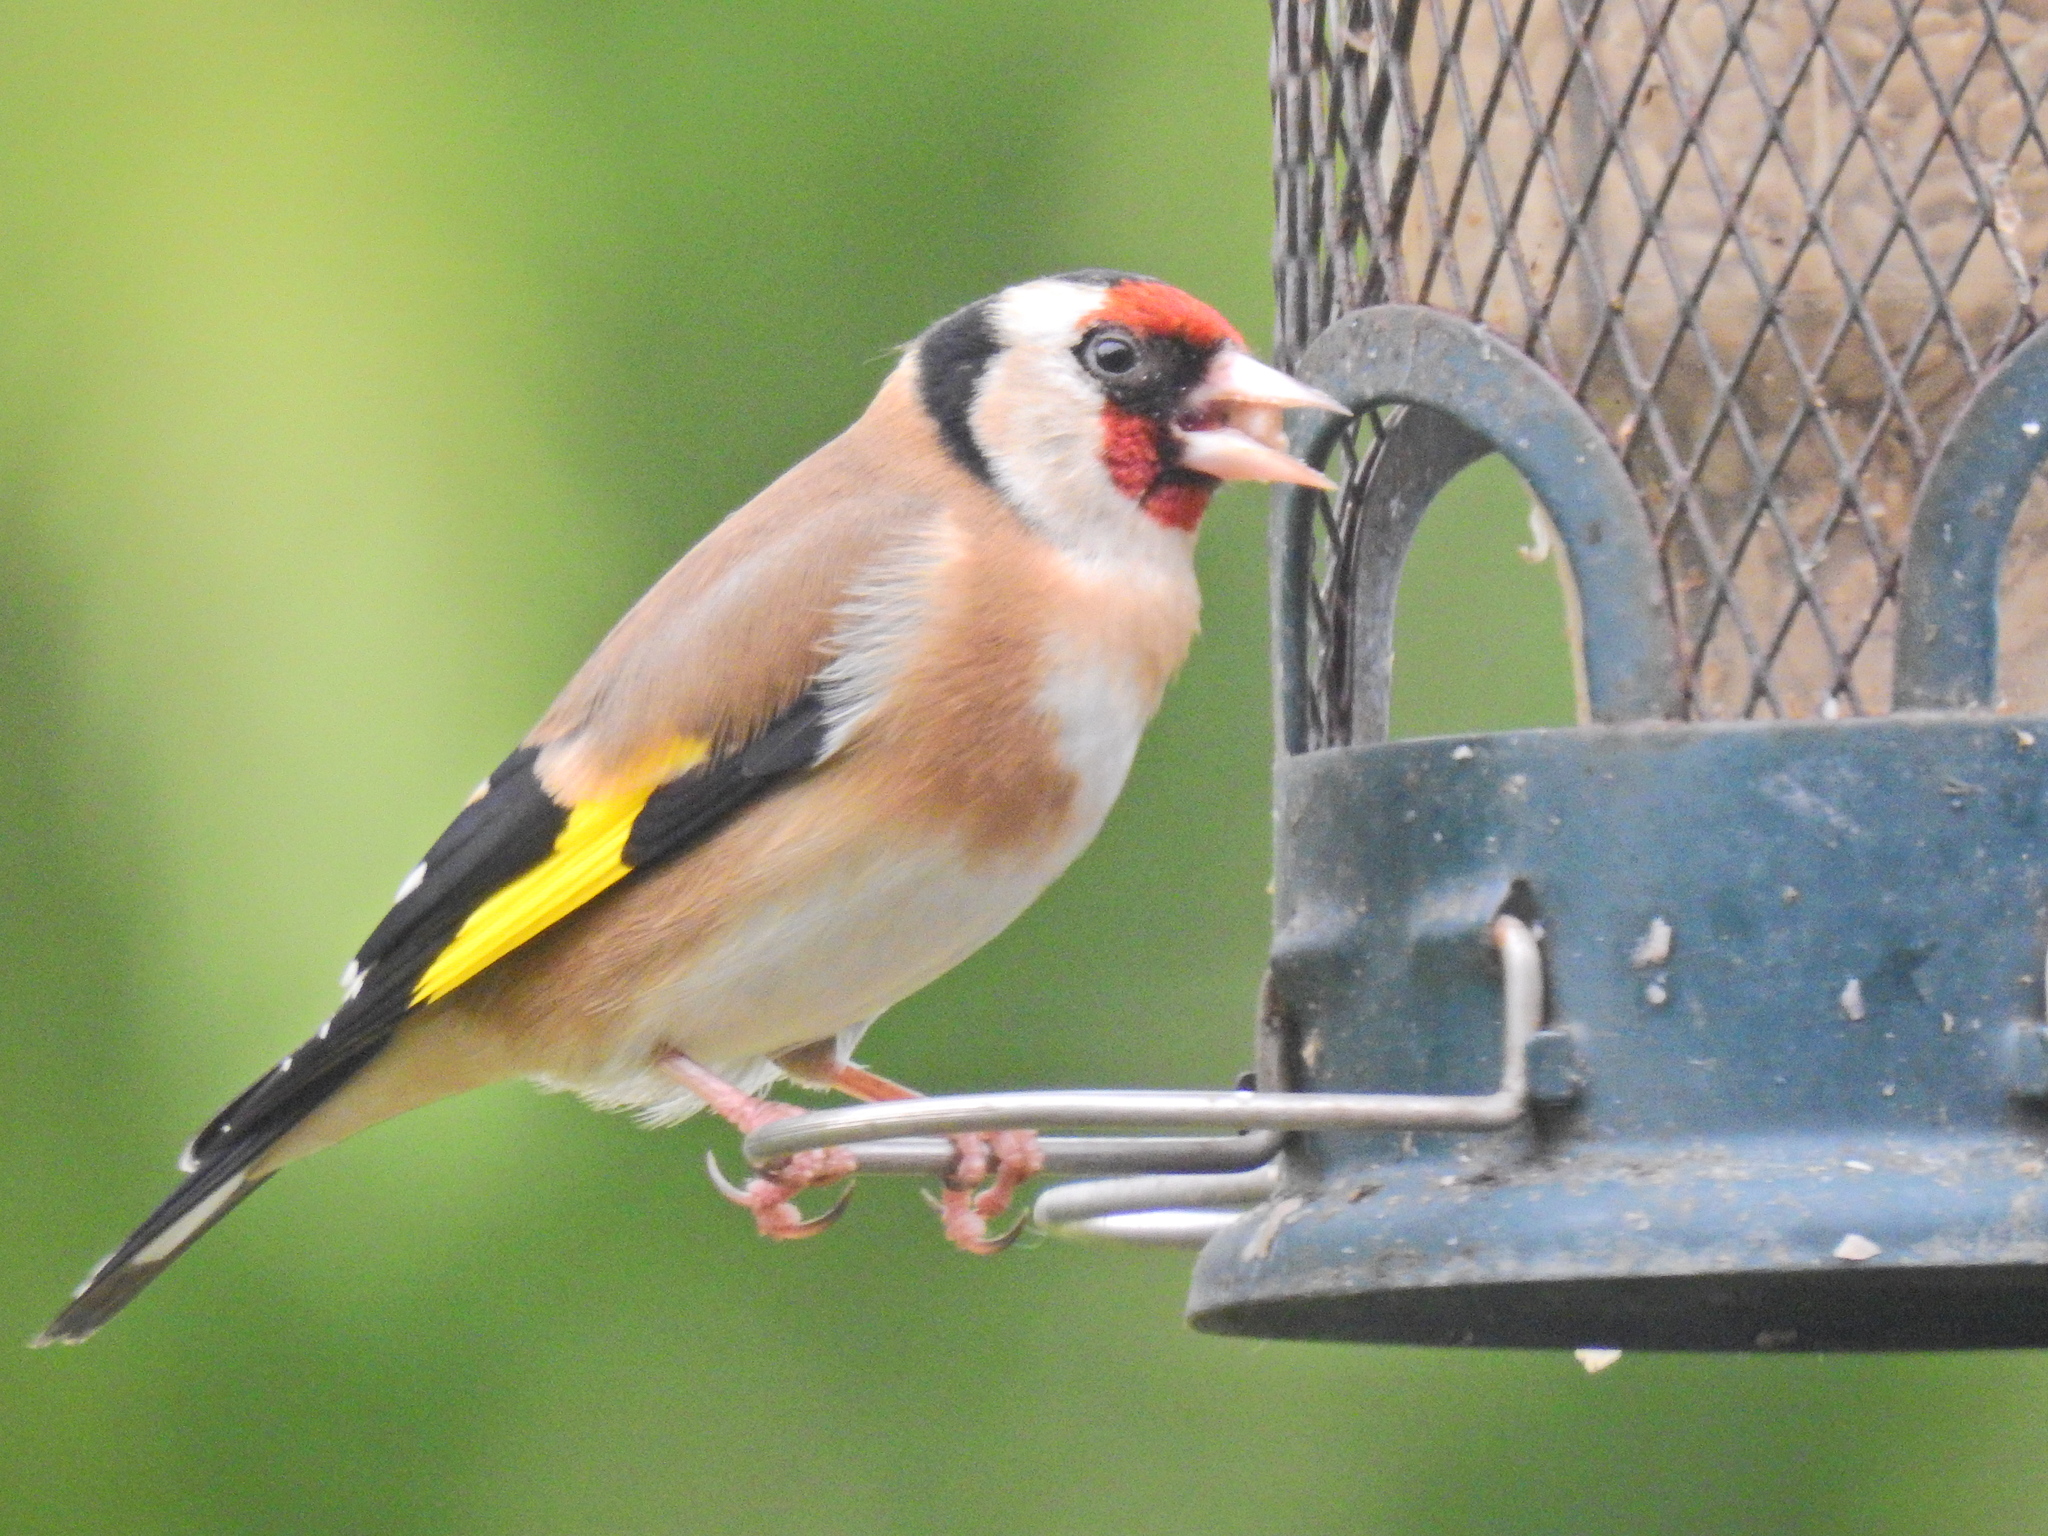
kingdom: Animalia
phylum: Chordata
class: Aves
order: Passeriformes
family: Fringillidae
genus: Carduelis
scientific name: Carduelis carduelis
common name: European goldfinch
